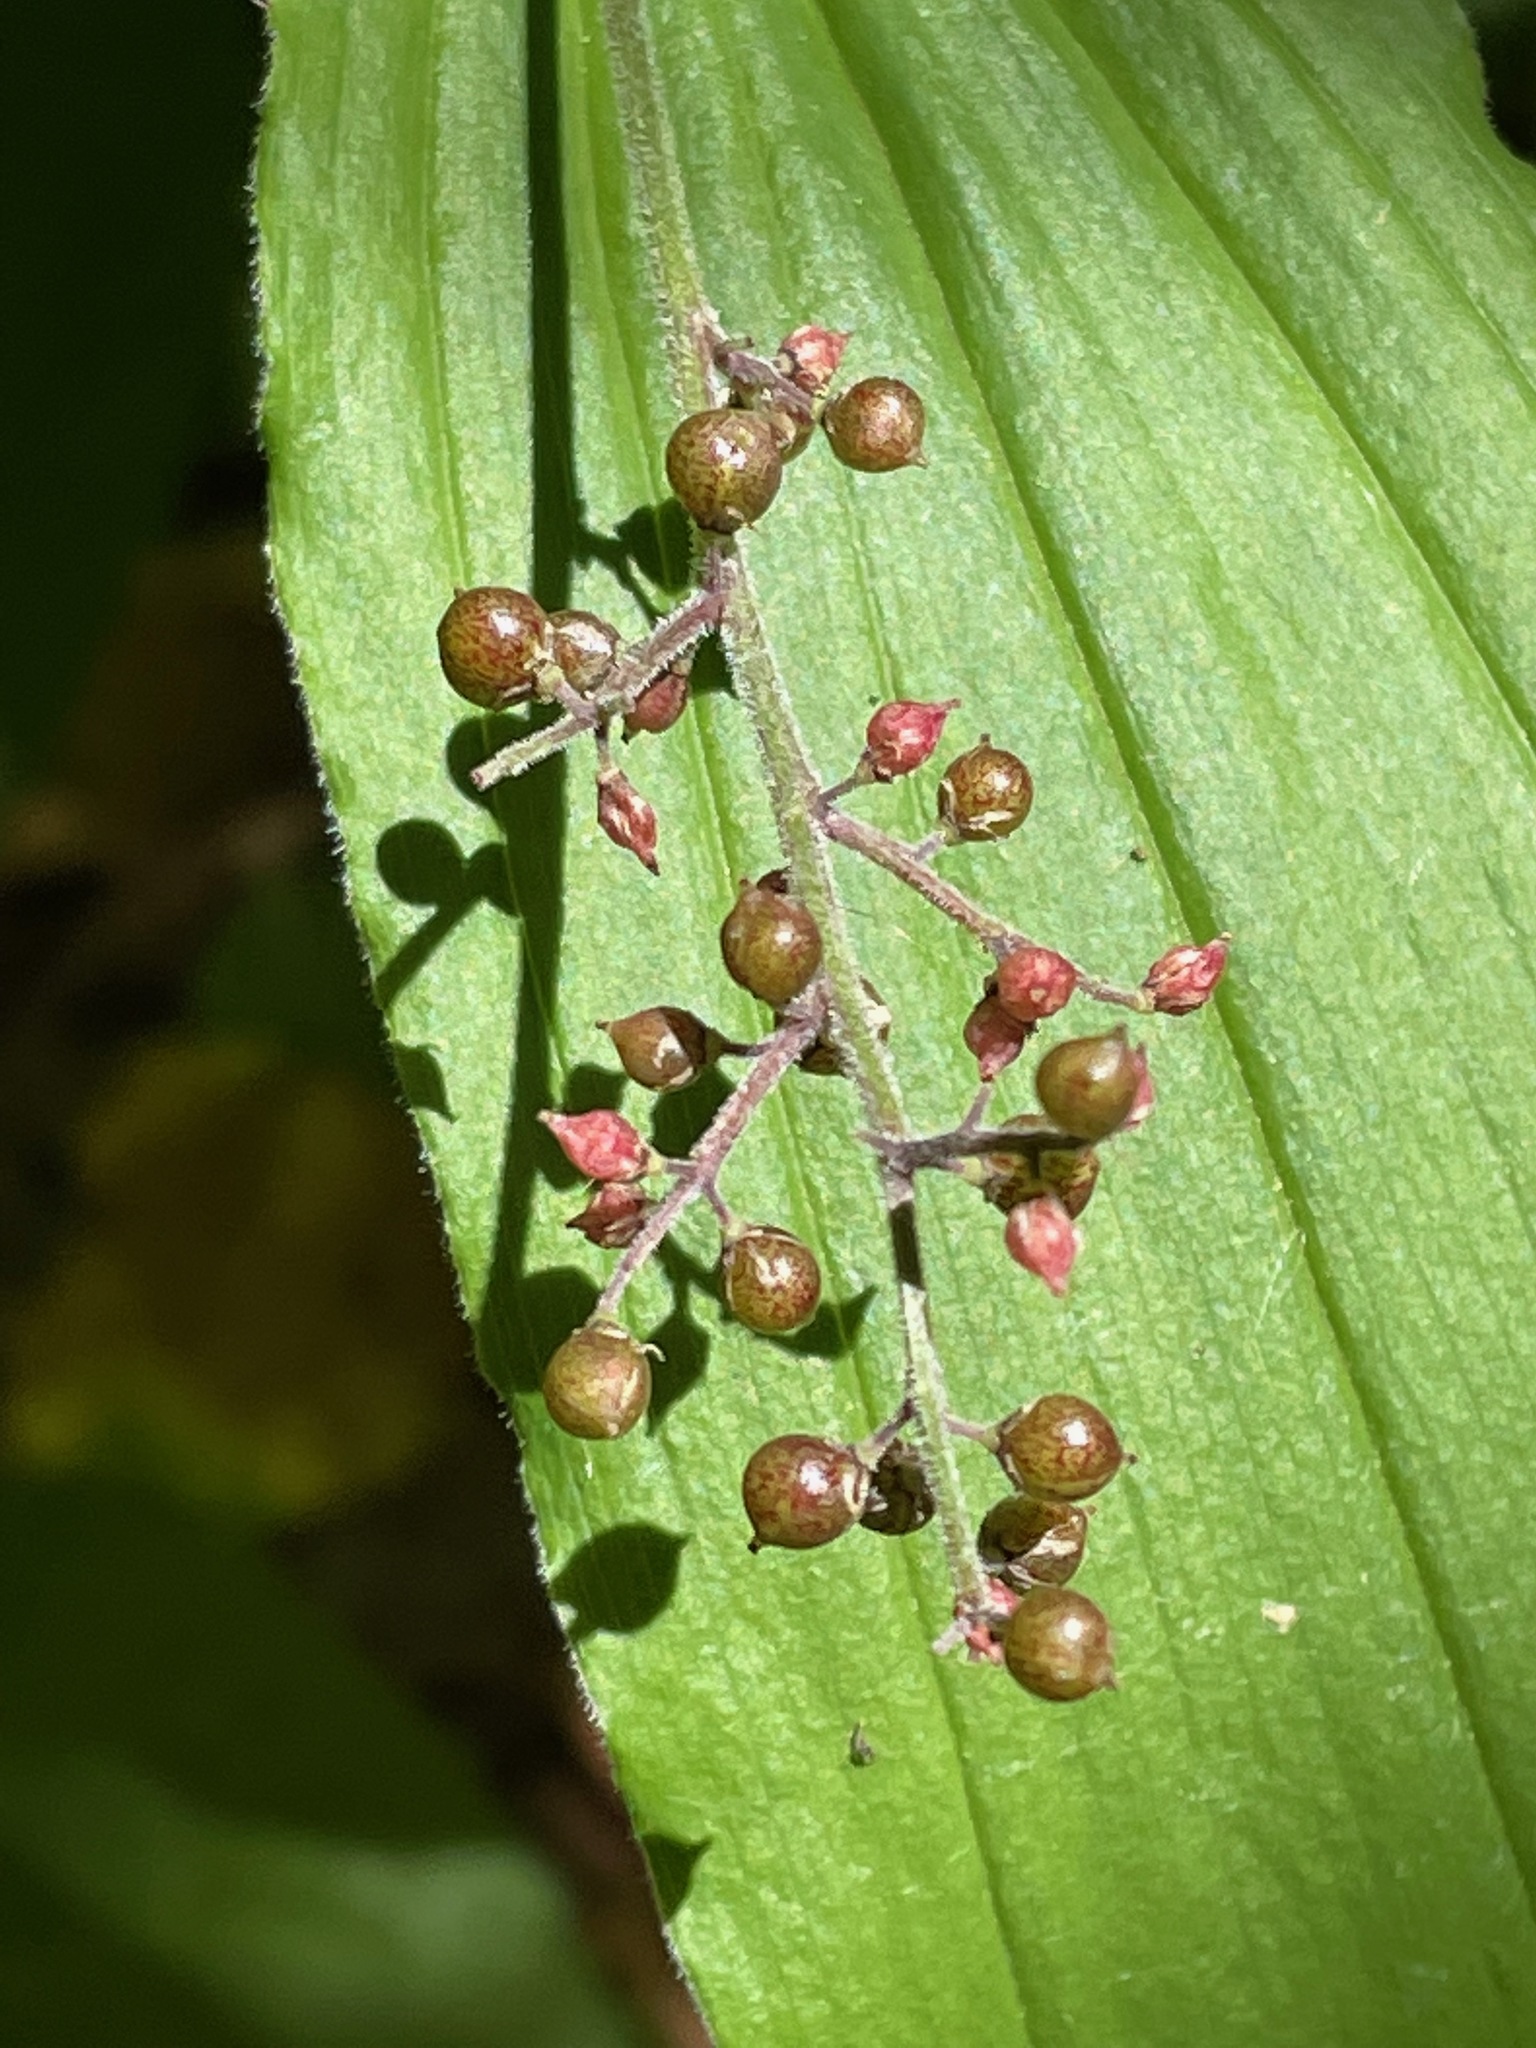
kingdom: Plantae
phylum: Tracheophyta
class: Liliopsida
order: Asparagales
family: Asparagaceae
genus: Maianthemum
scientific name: Maianthemum racemosum
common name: False spikenard
